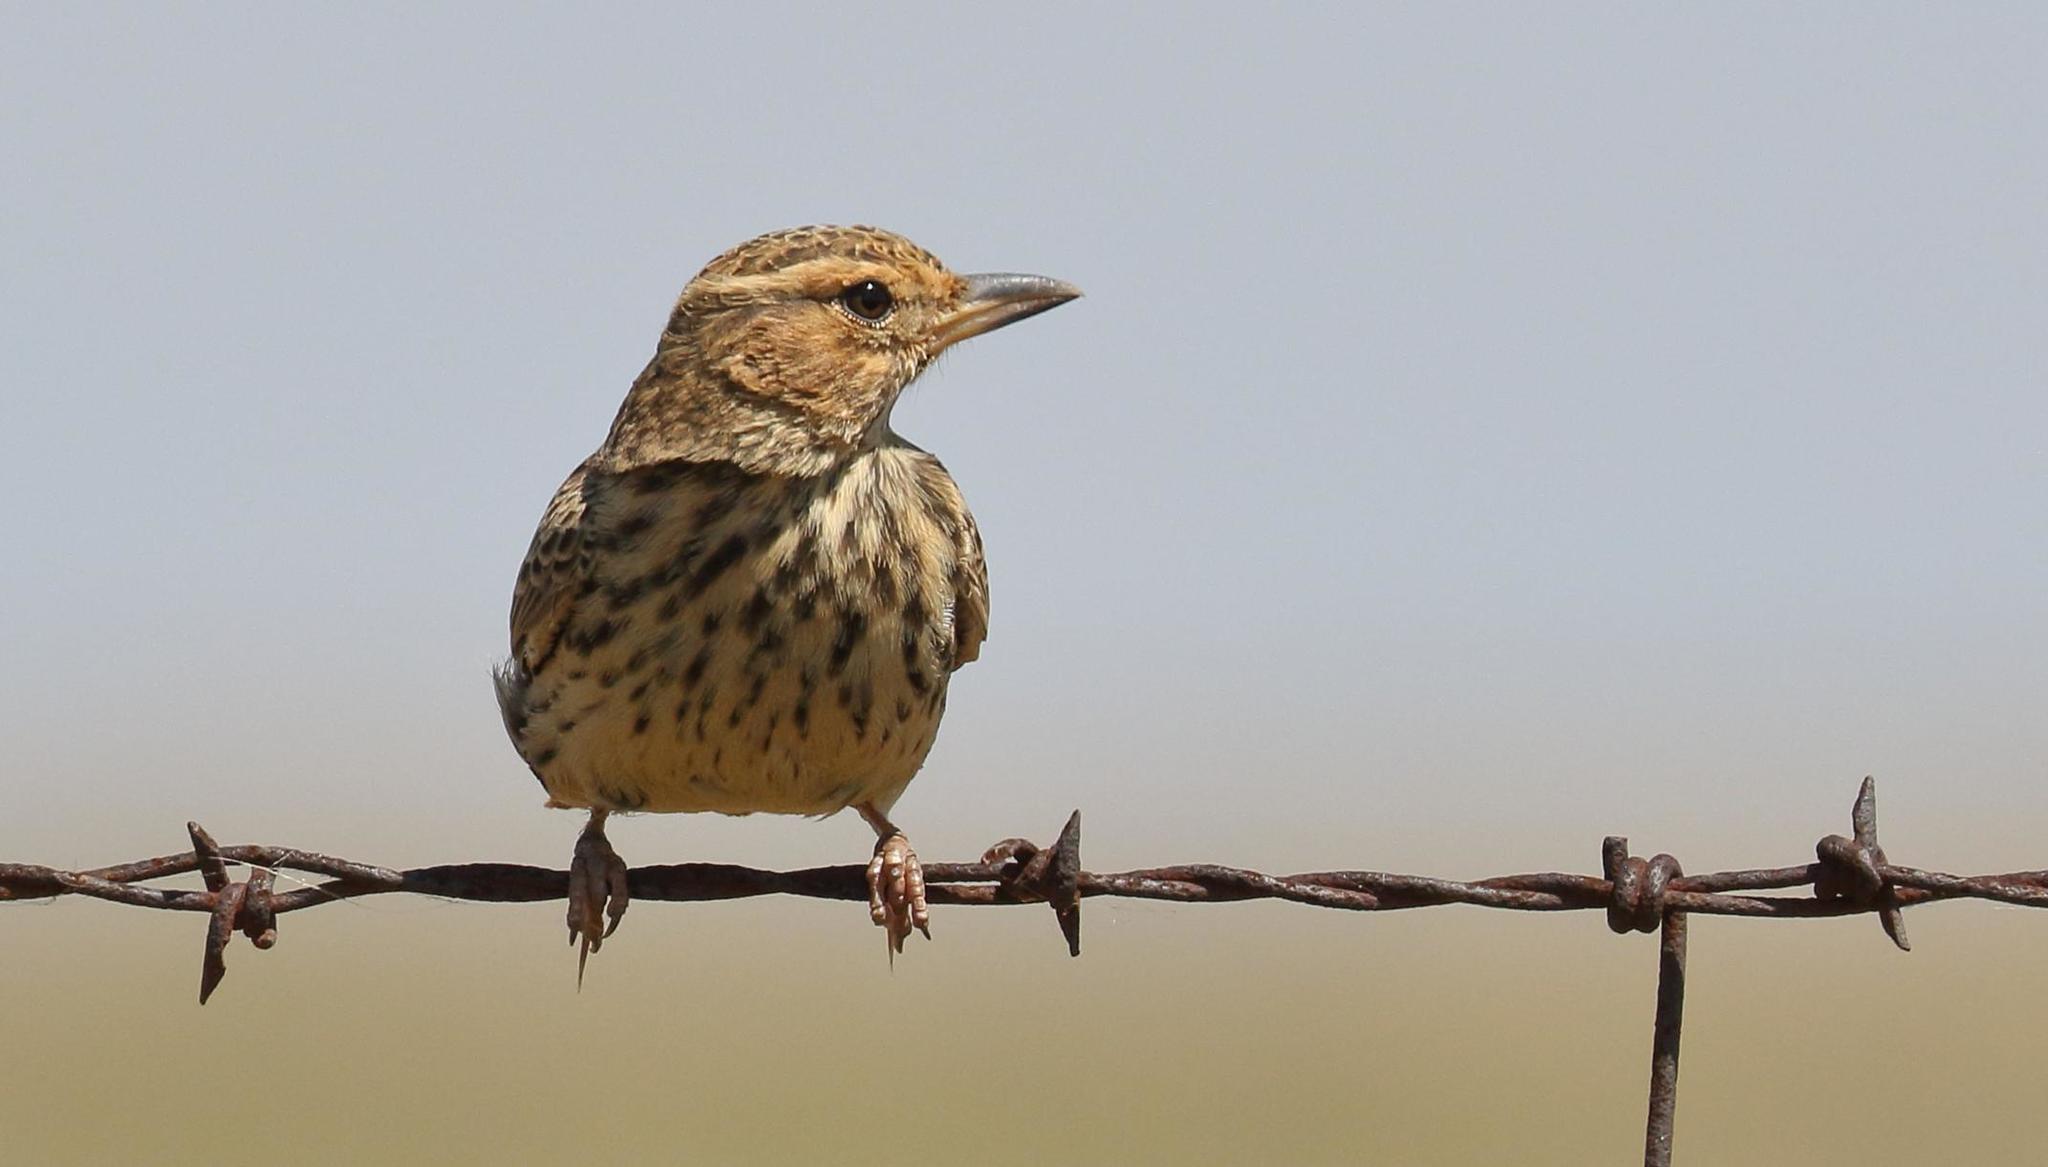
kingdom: Animalia
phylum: Chordata
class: Aves
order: Passeriformes
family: Alaudidae
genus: Galerida
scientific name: Galerida magnirostris
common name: Large-billed lark
